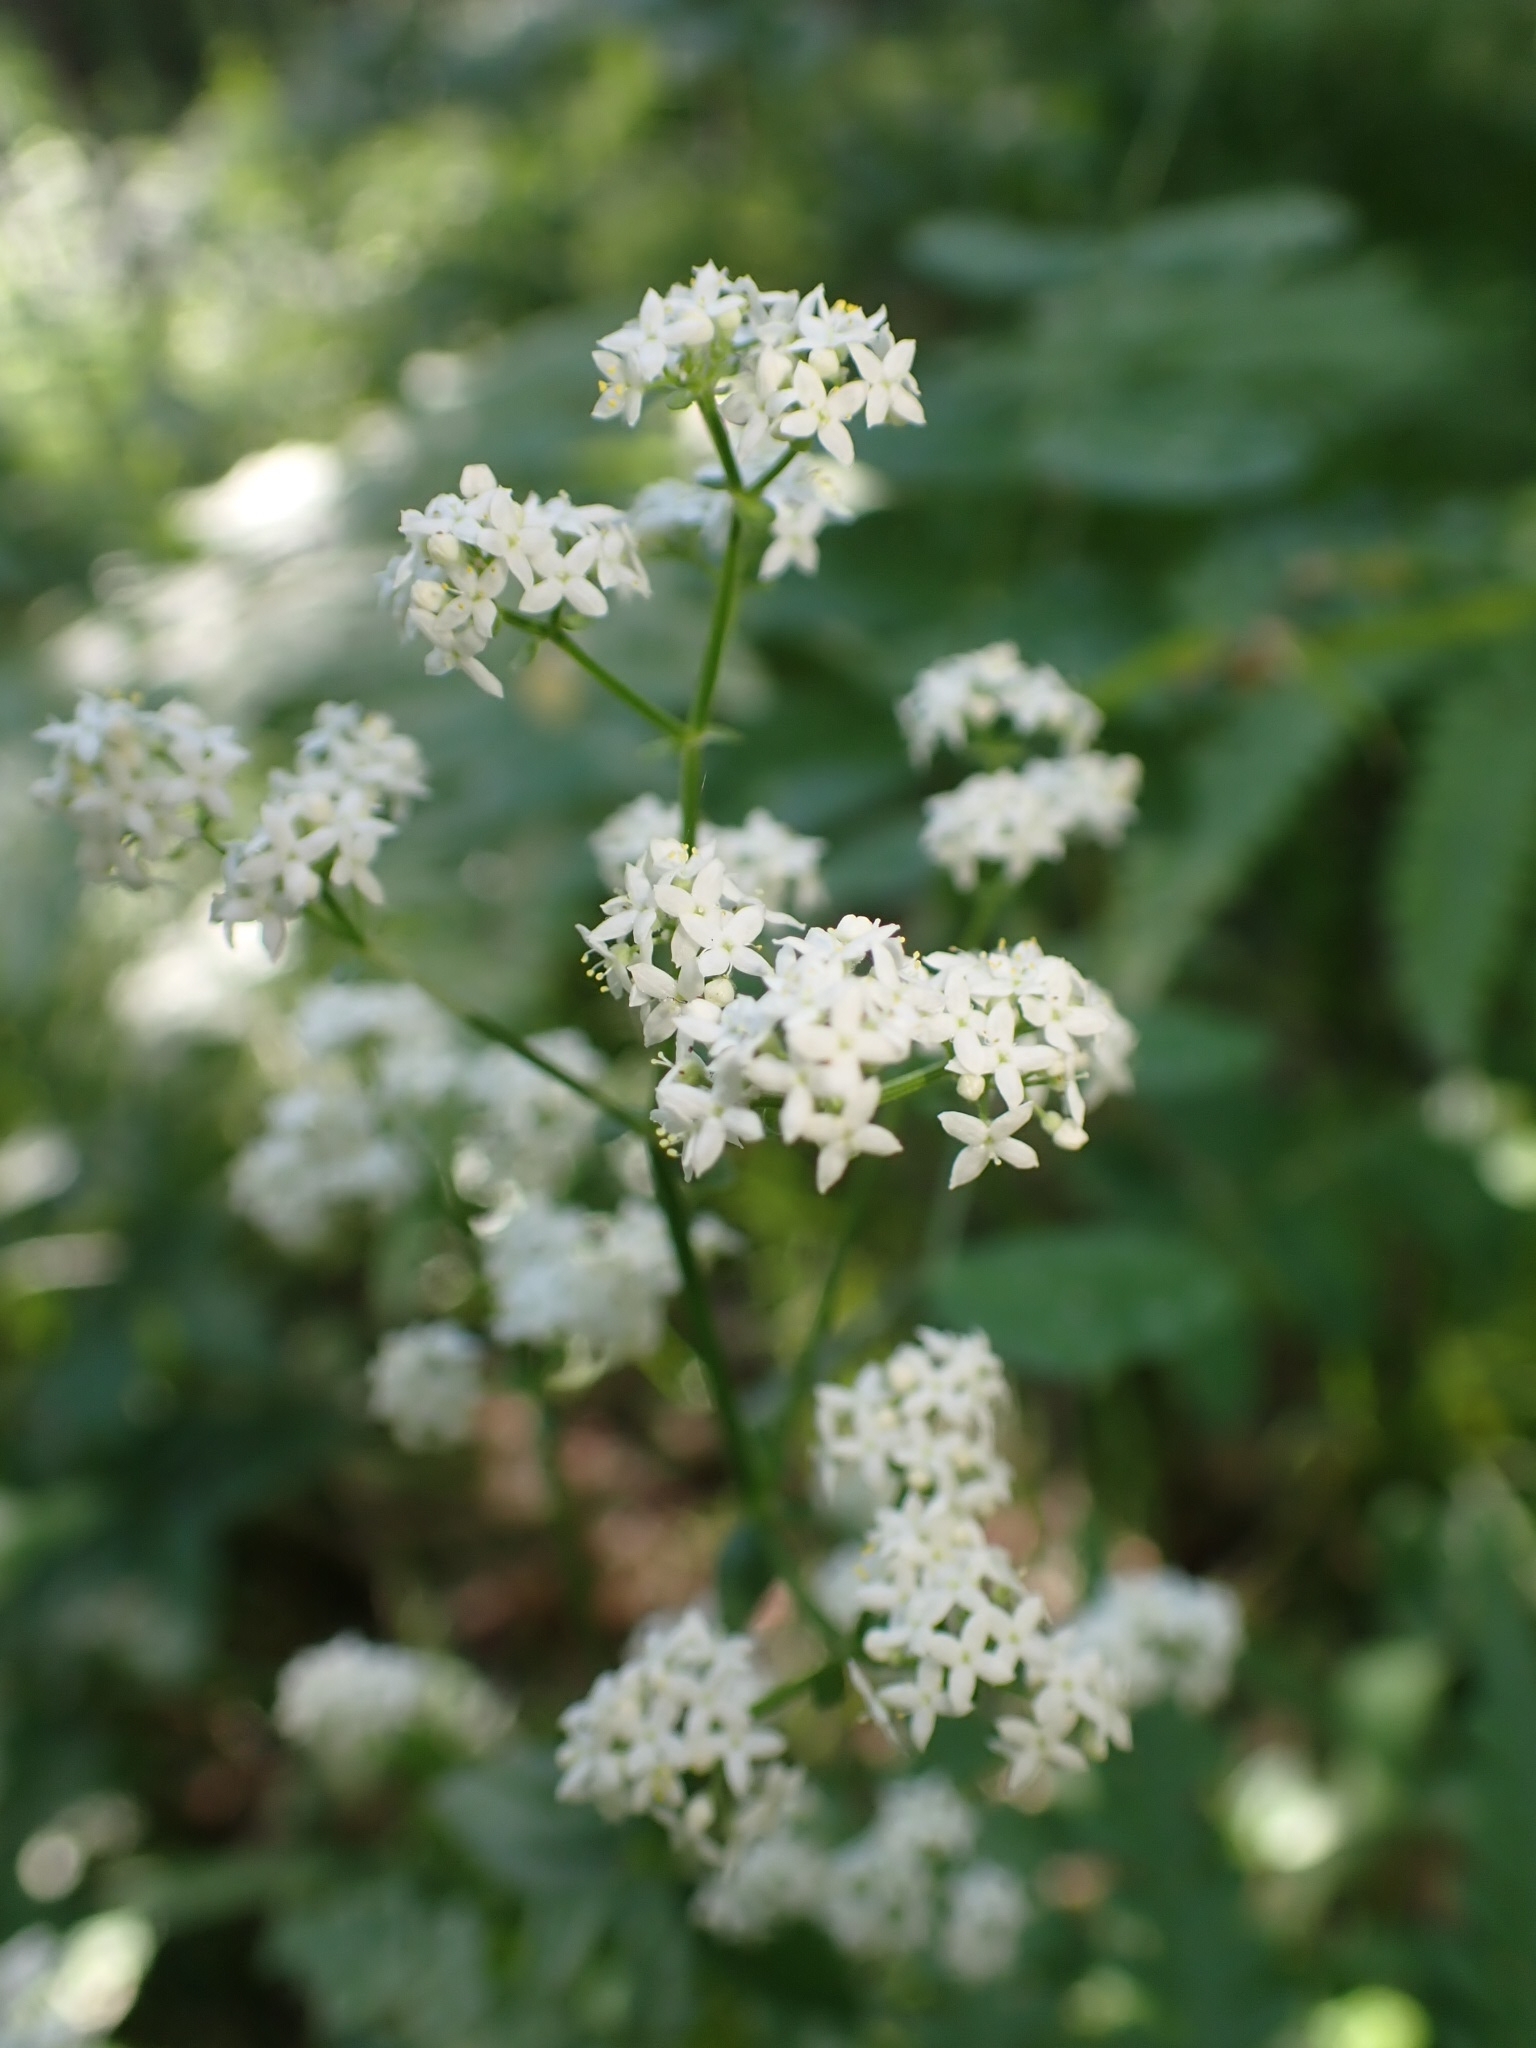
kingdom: Plantae
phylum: Tracheophyta
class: Magnoliopsida
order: Gentianales
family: Rubiaceae
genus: Galium
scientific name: Galium boreale
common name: Northern bedstraw
